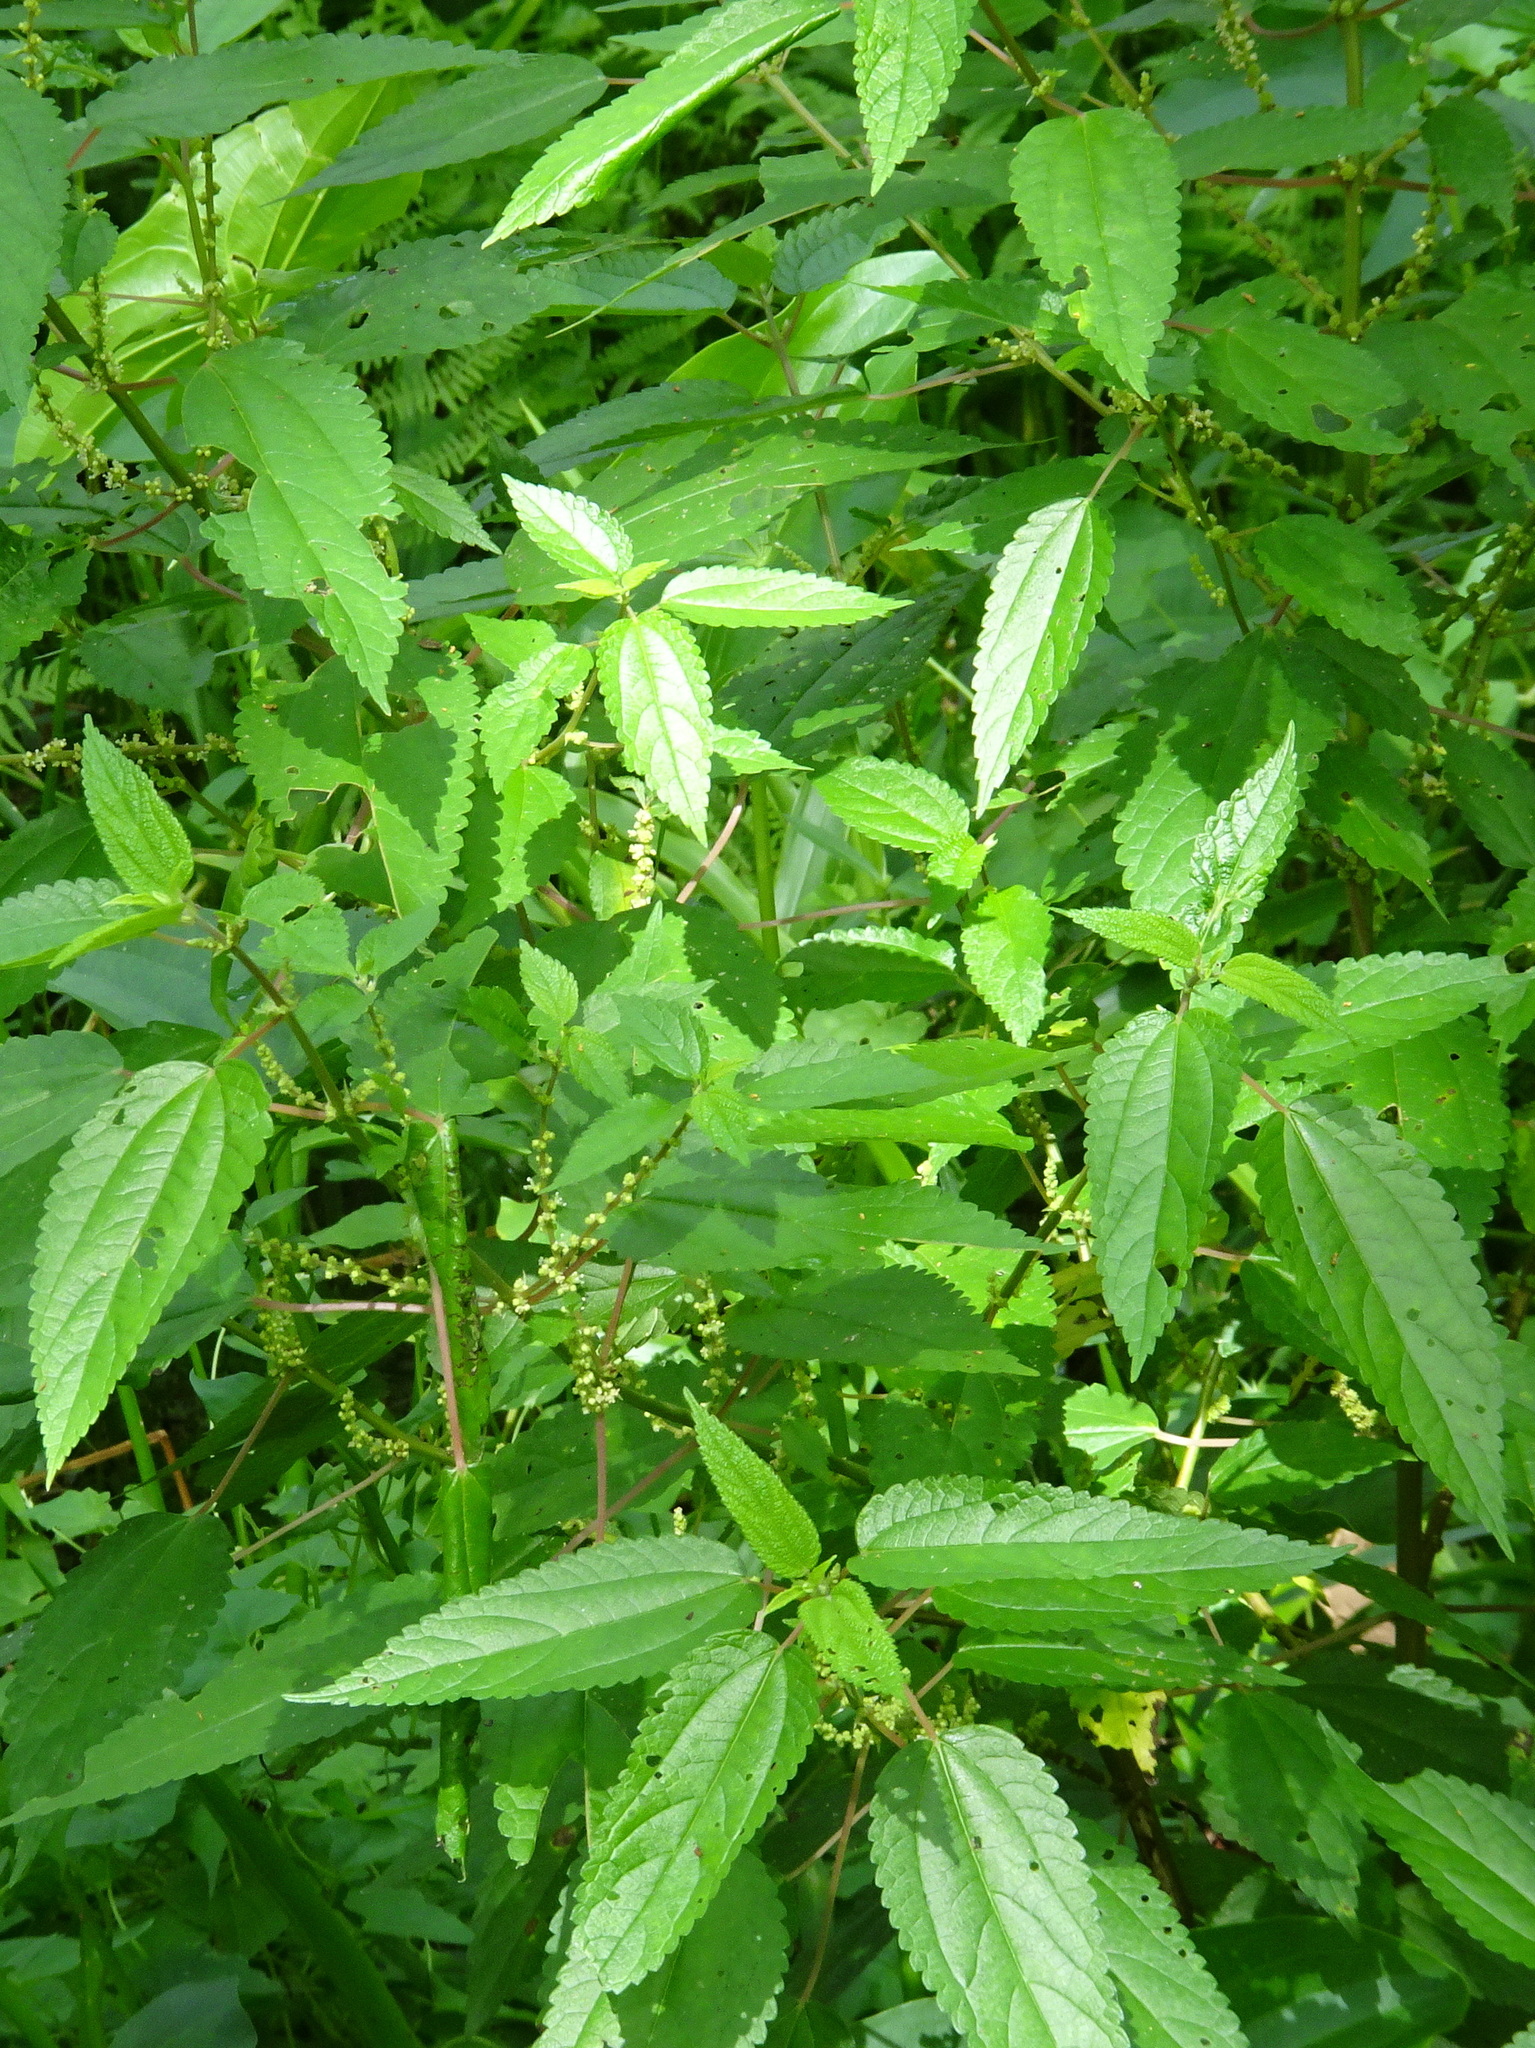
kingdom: Plantae
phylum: Tracheophyta
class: Magnoliopsida
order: Rosales
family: Urticaceae
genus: Boehmeria
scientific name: Boehmeria cylindrica
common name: Bog-hemp
